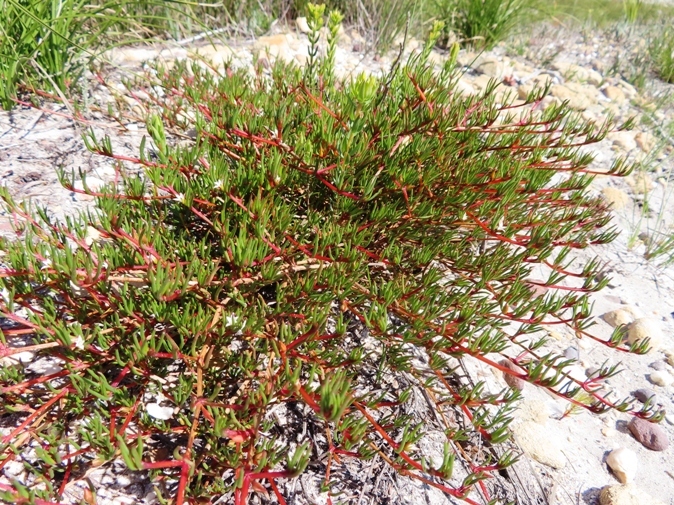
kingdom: Plantae
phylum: Tracheophyta
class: Magnoliopsida
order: Caryophyllales
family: Aizoaceae
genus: Acrosanthes
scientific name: Acrosanthes teretifolia
